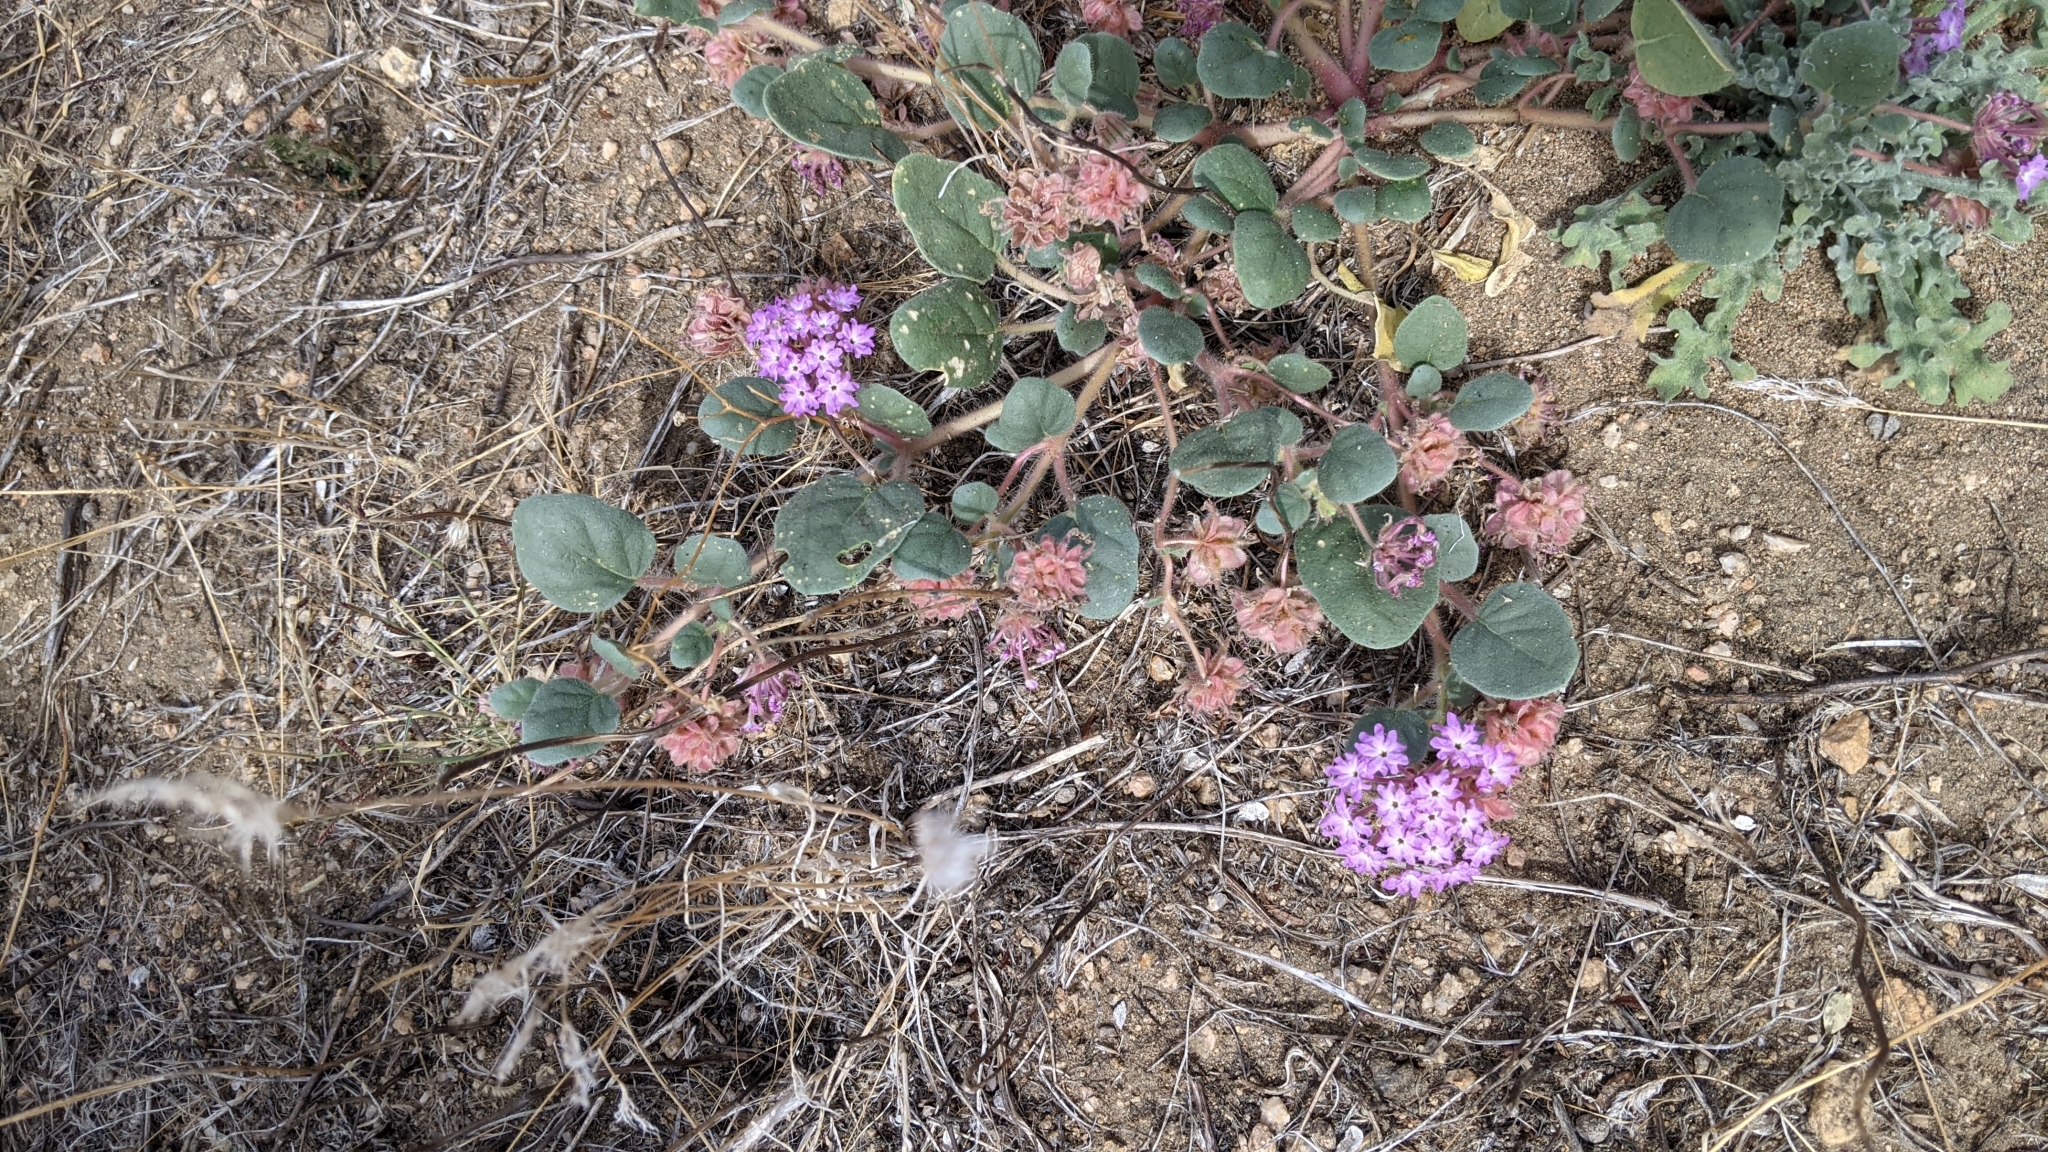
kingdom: Plantae
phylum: Tracheophyta
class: Magnoliopsida
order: Caryophyllales
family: Nyctaginaceae
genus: Abronia
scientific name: Abronia villosa
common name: Desert sand-verbena
